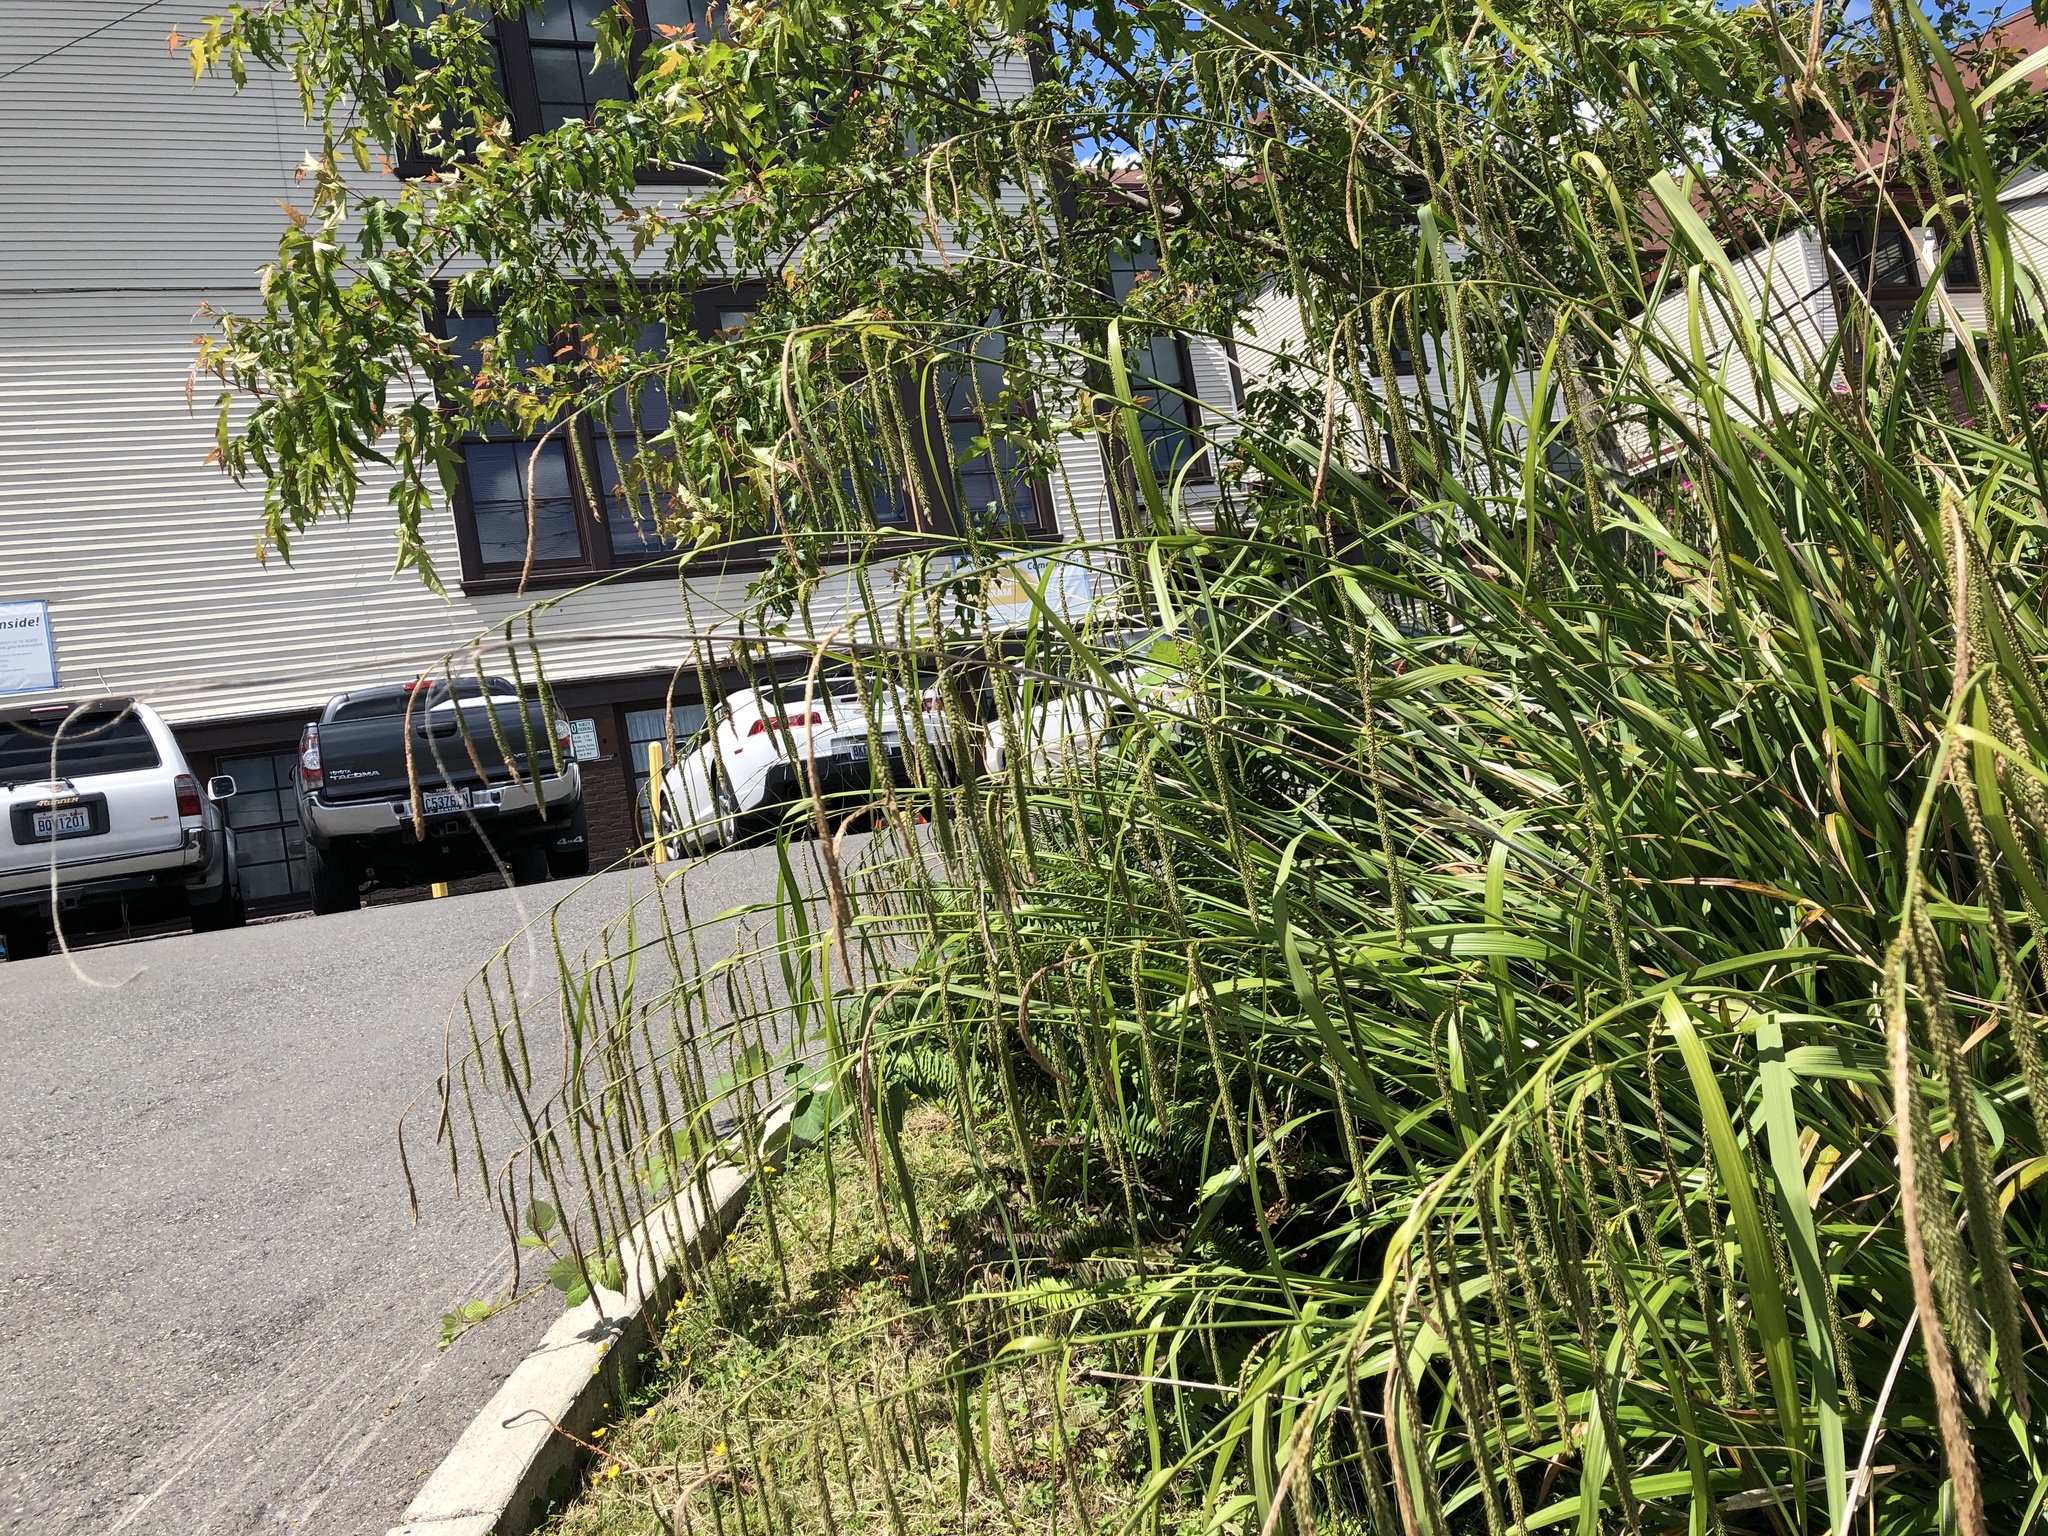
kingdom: Plantae
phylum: Tracheophyta
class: Liliopsida
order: Poales
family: Cyperaceae
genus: Carex
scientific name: Carex pendula
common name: Pendulous sedge
